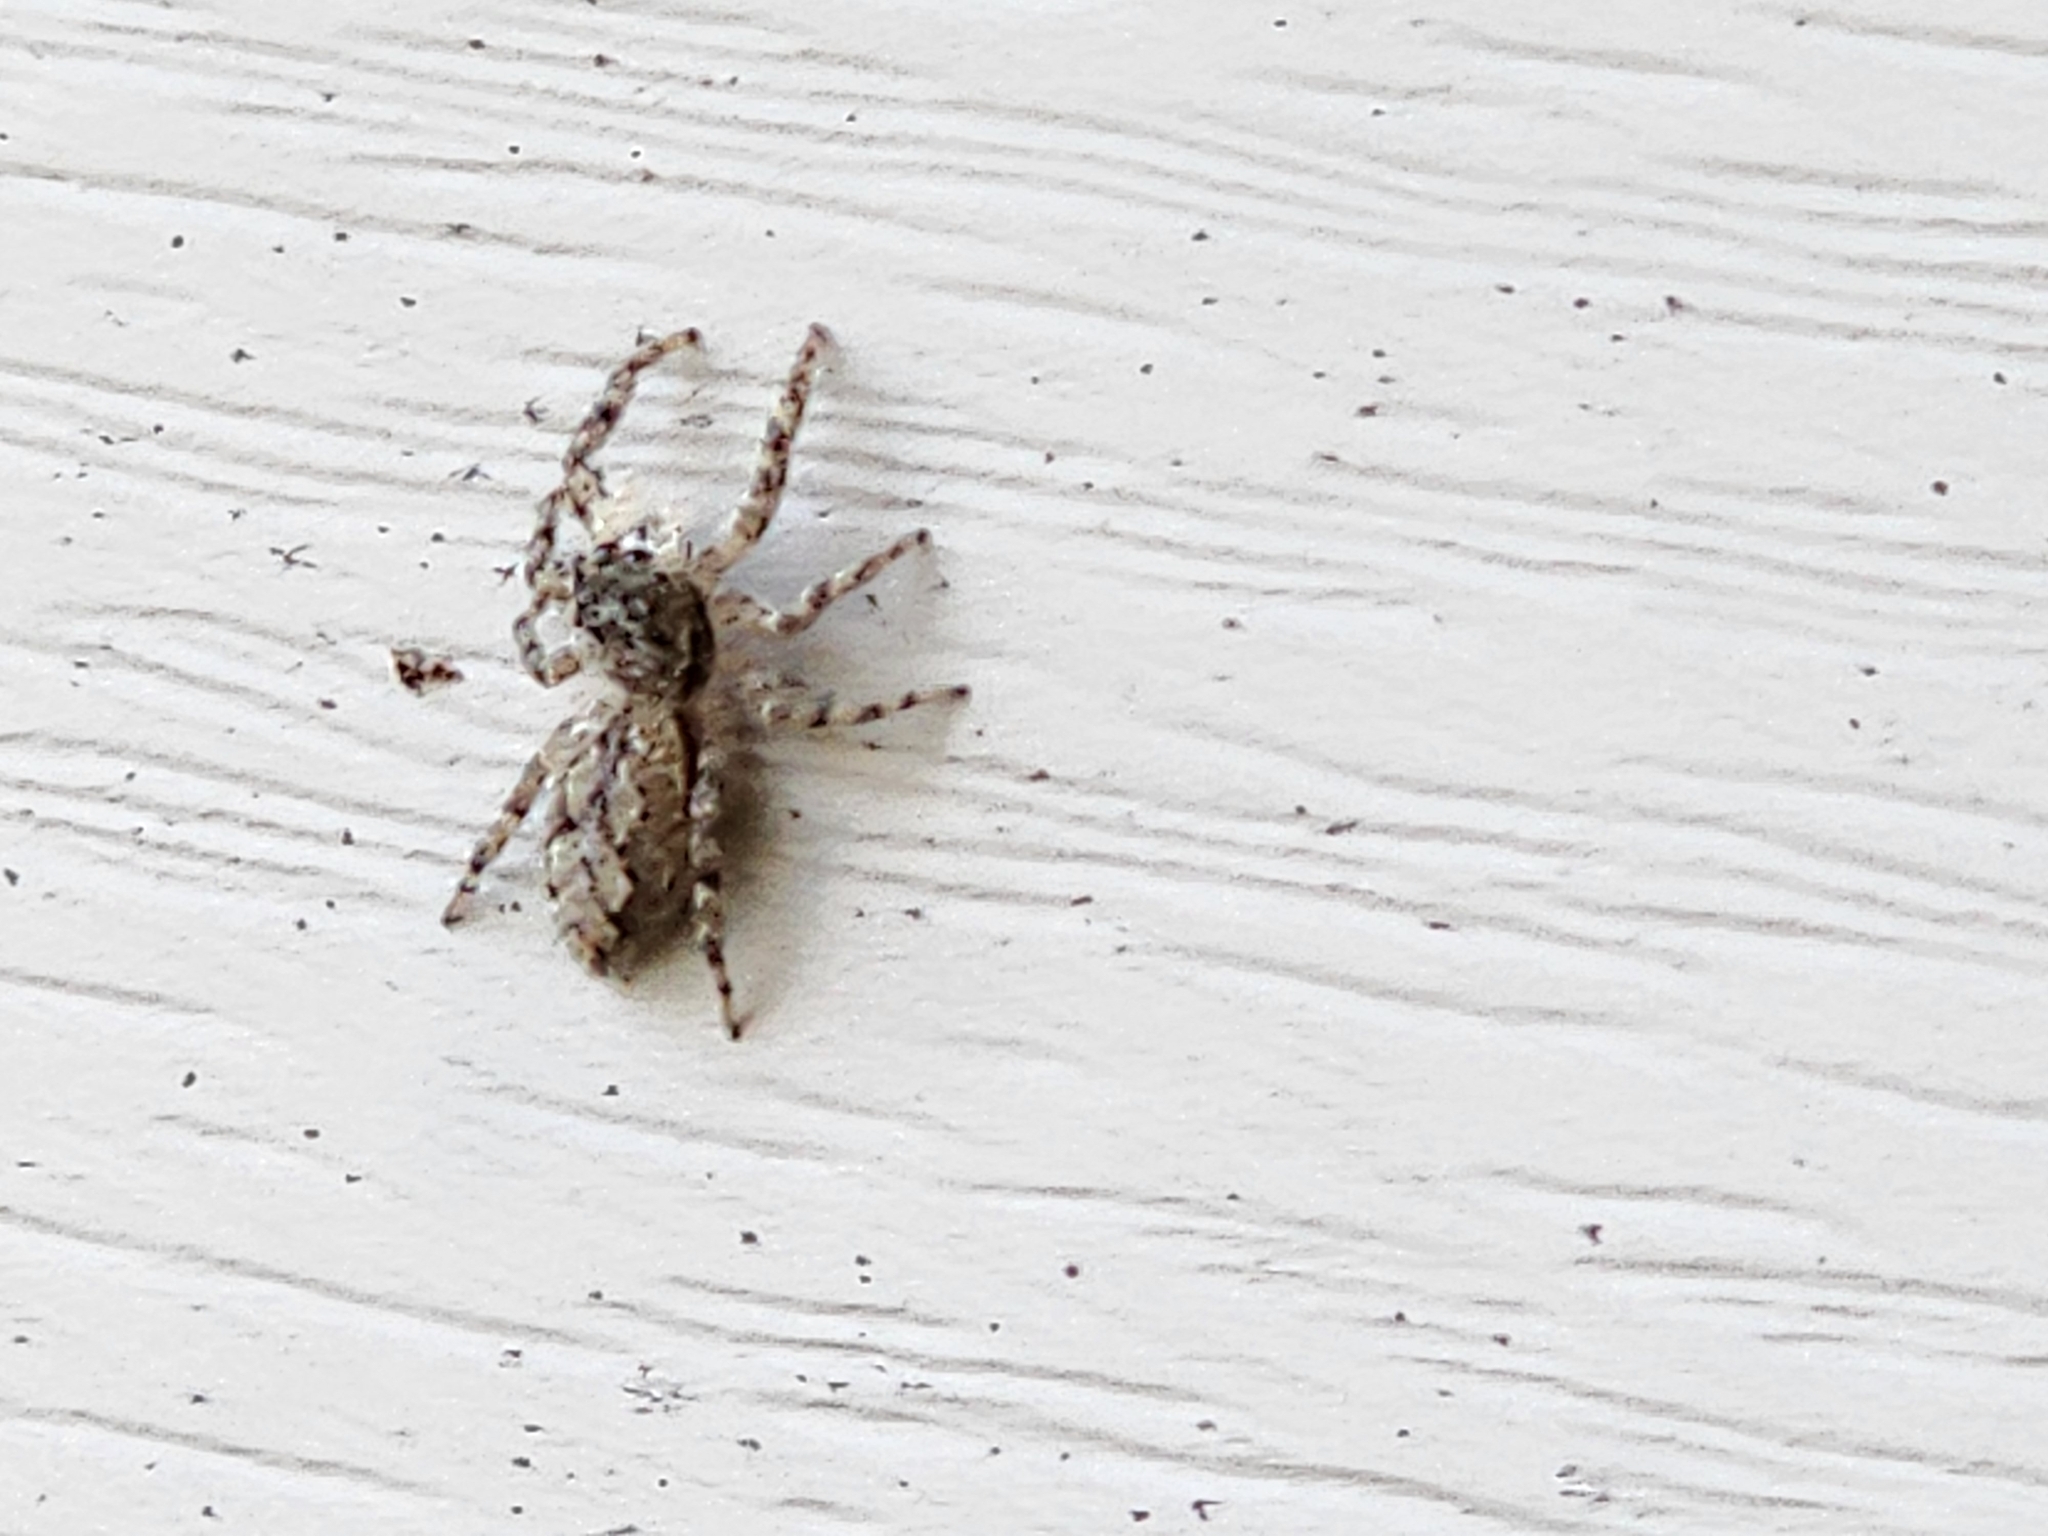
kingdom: Animalia
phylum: Arthropoda
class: Arachnida
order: Araneae
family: Salticidae
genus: Platycryptus
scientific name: Platycryptus undatus
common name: Tan jumping spider
